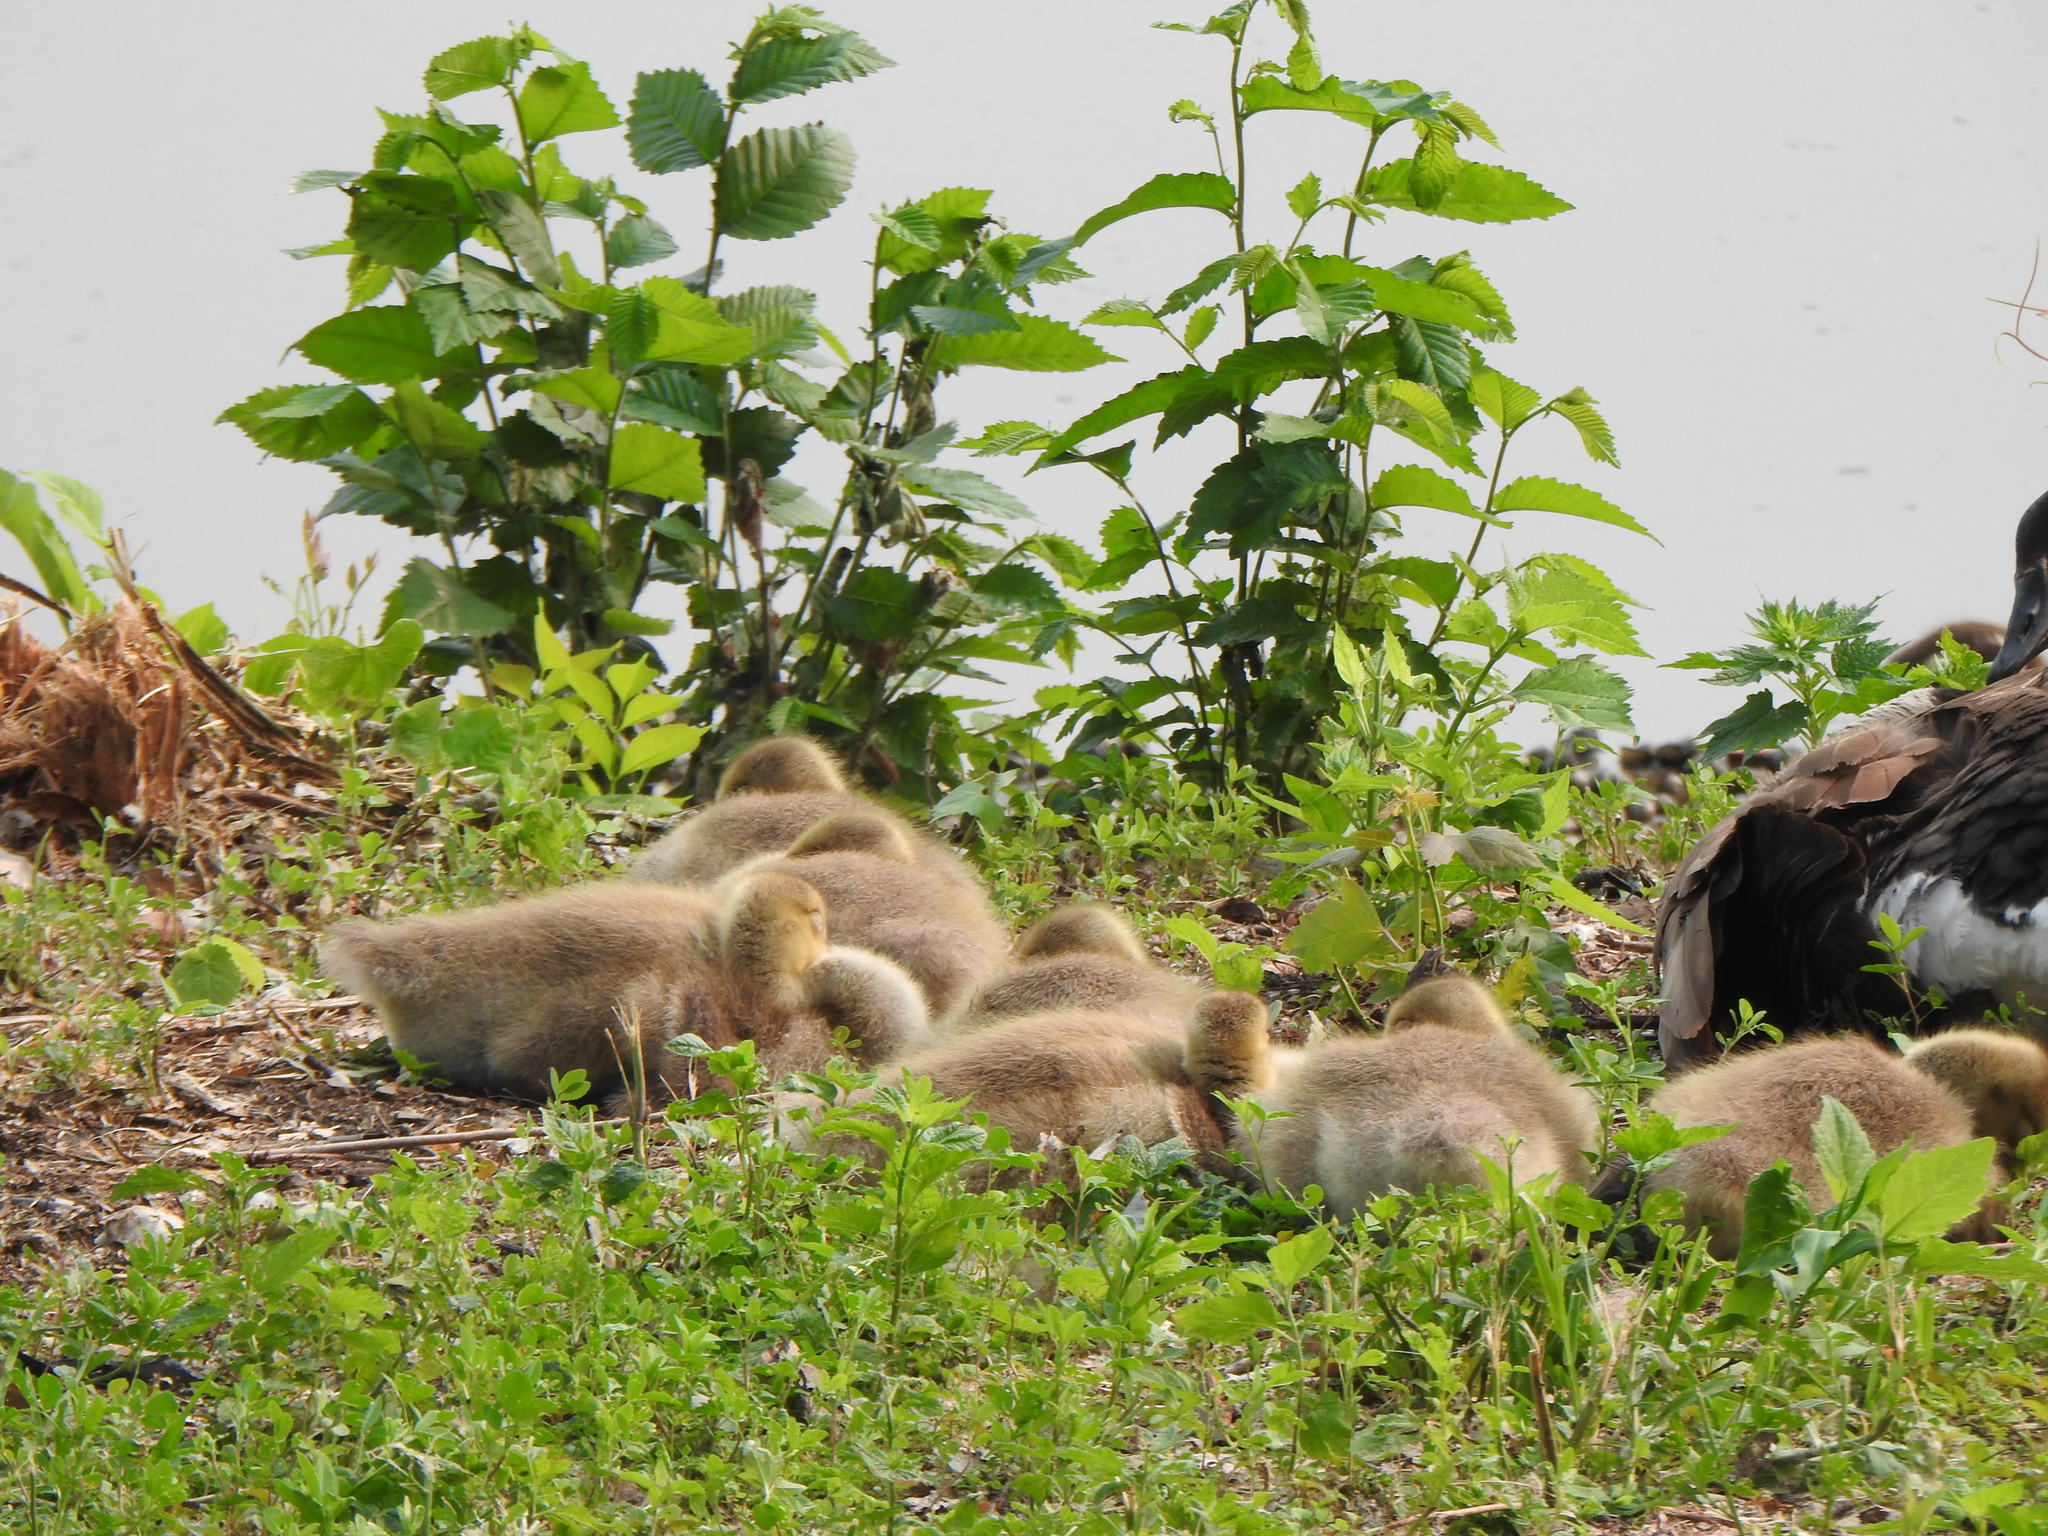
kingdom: Animalia
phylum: Chordata
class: Aves
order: Anseriformes
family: Anatidae
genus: Branta
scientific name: Branta canadensis
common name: Canada goose
